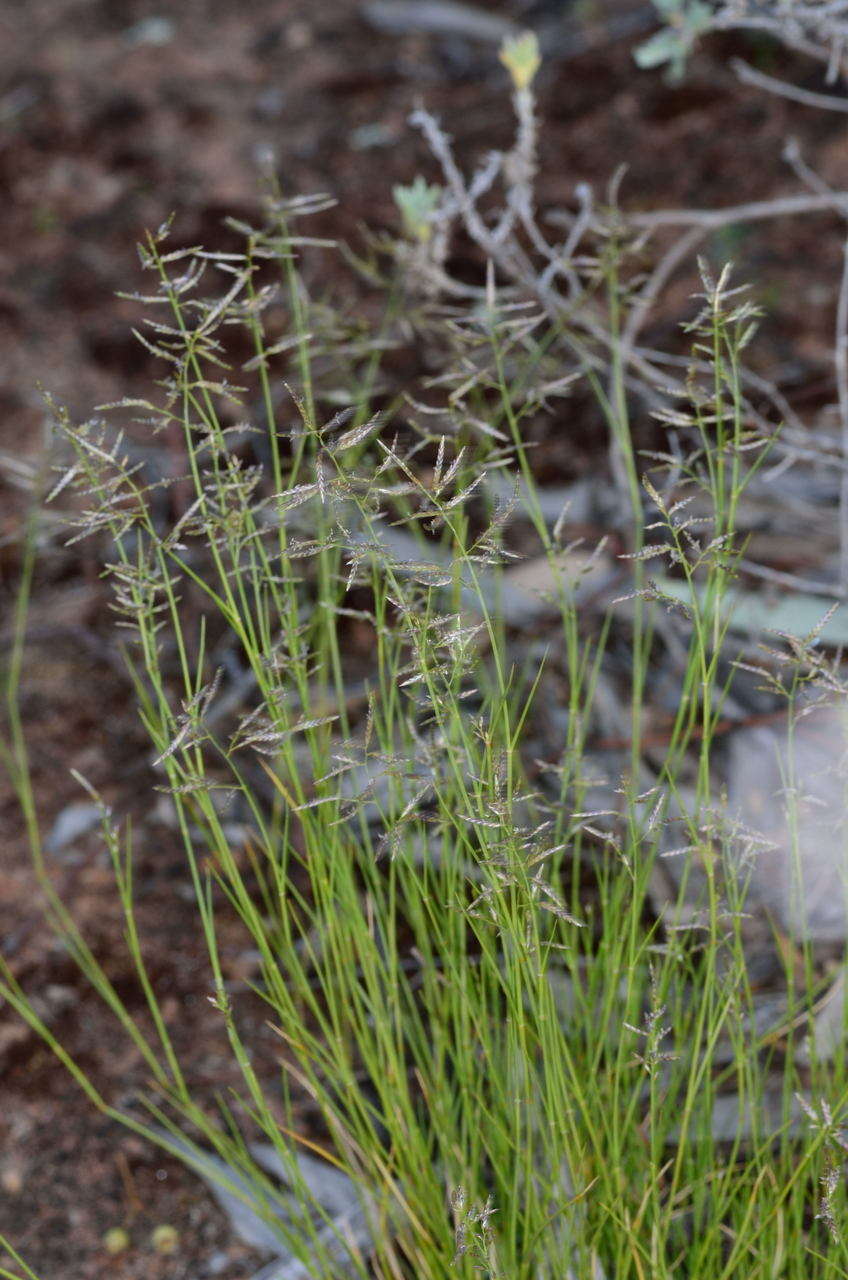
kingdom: Plantae
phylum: Tracheophyta
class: Liliopsida
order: Poales
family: Poaceae
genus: Eragrostis
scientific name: Eragrostis setifolia
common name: Bristleleaf lovegrass
